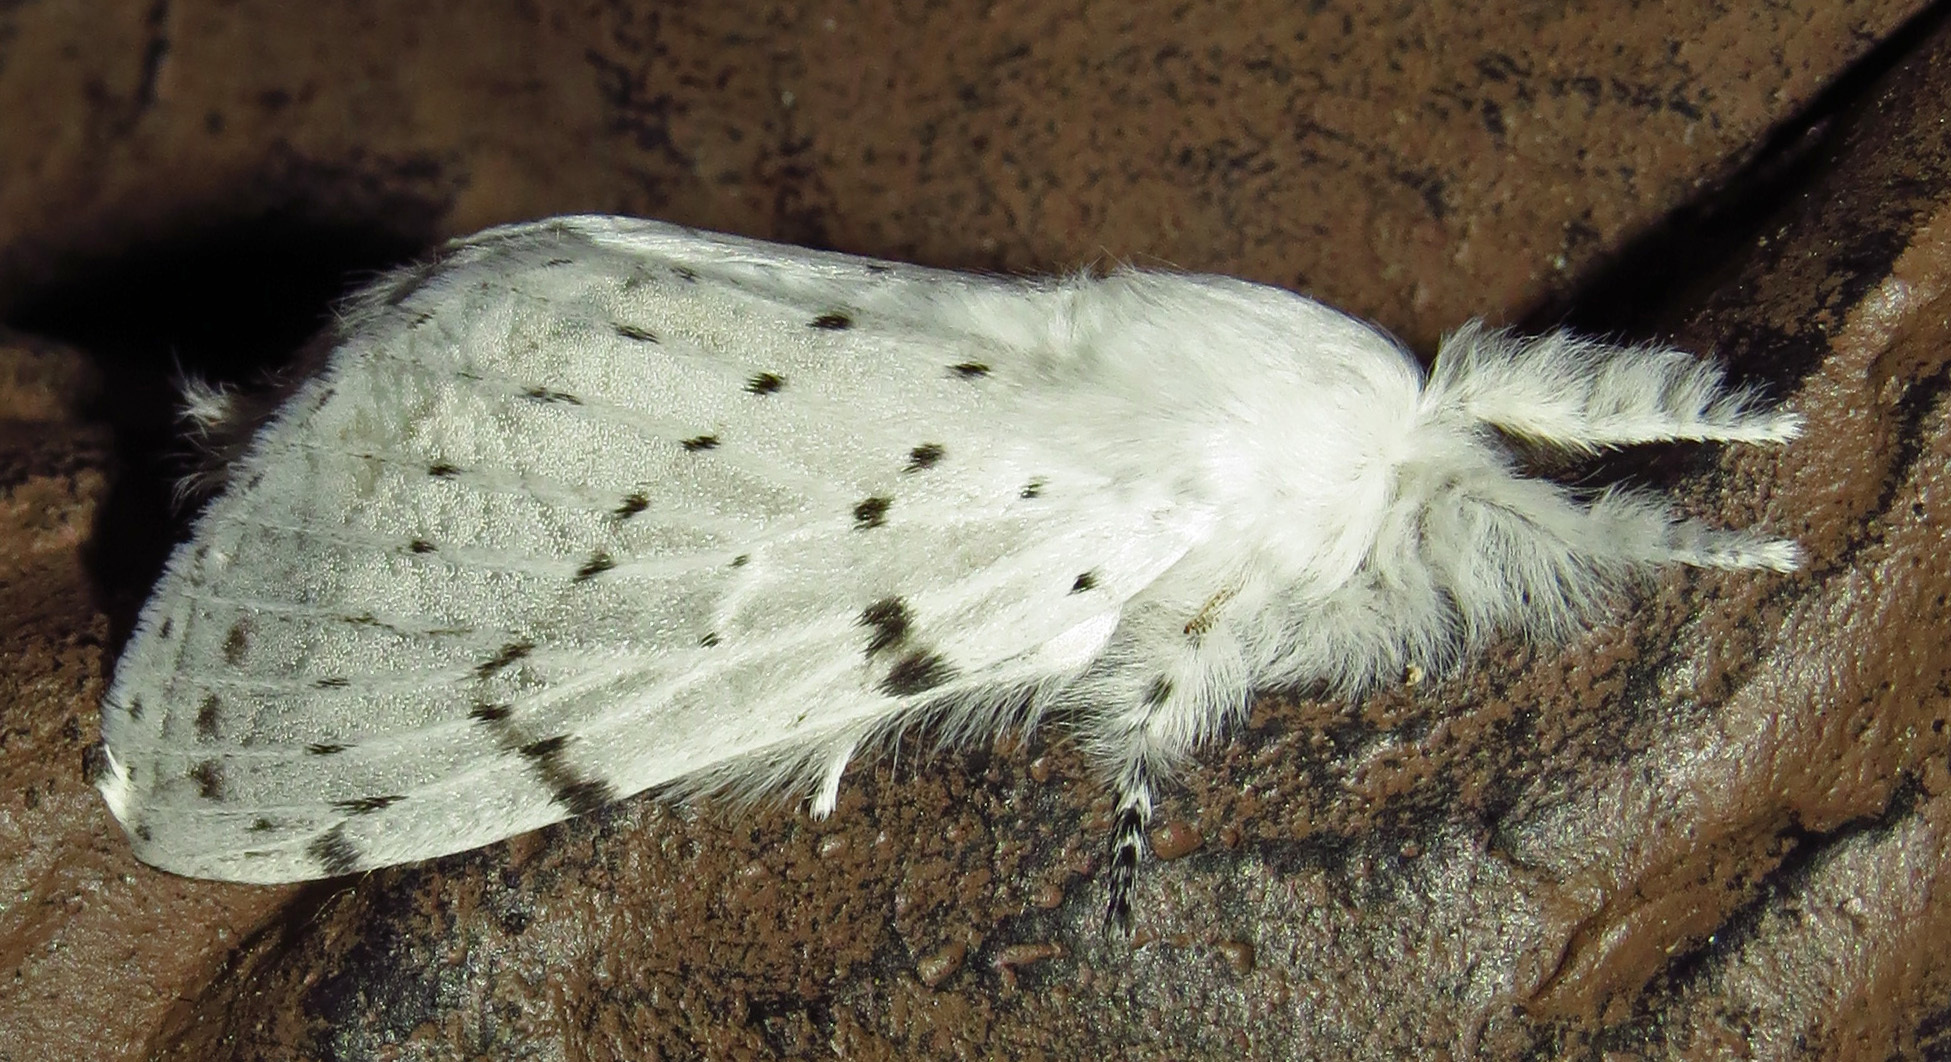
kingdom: Animalia
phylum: Arthropoda
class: Insecta
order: Lepidoptera
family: Lasiocampidae
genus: Artace
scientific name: Artace cribrarius
